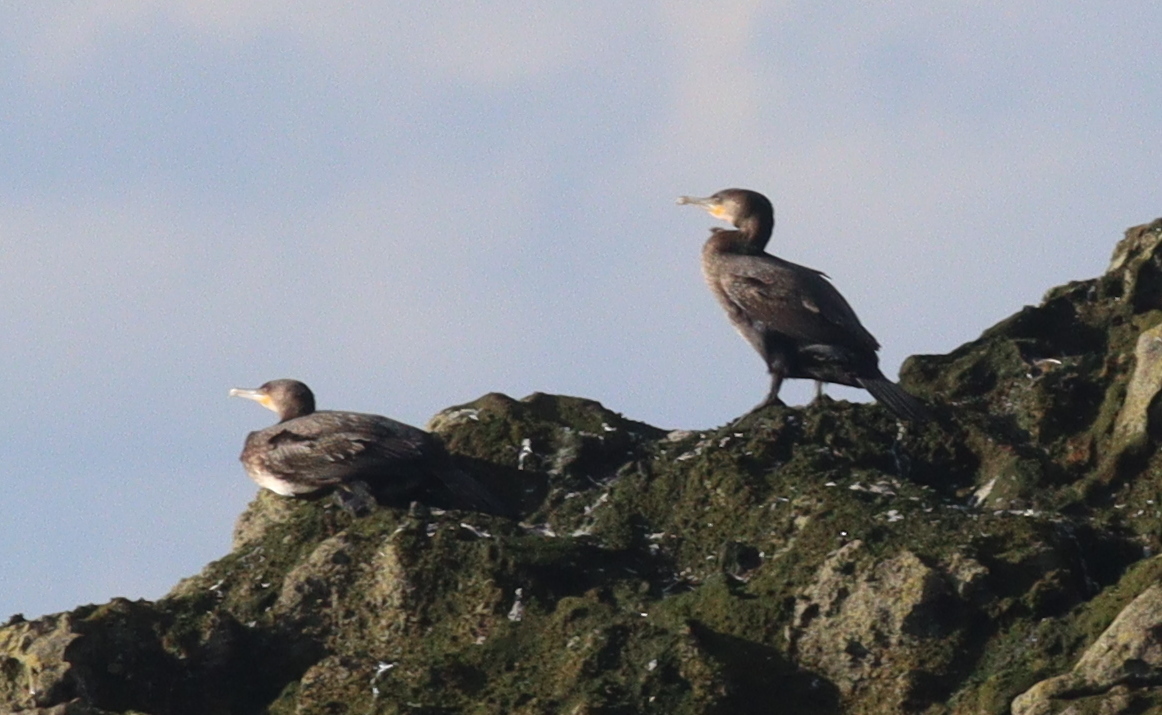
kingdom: Animalia
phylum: Chordata
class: Aves
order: Suliformes
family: Phalacrocoracidae
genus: Phalacrocorax
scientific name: Phalacrocorax carbo
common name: Great cormorant
